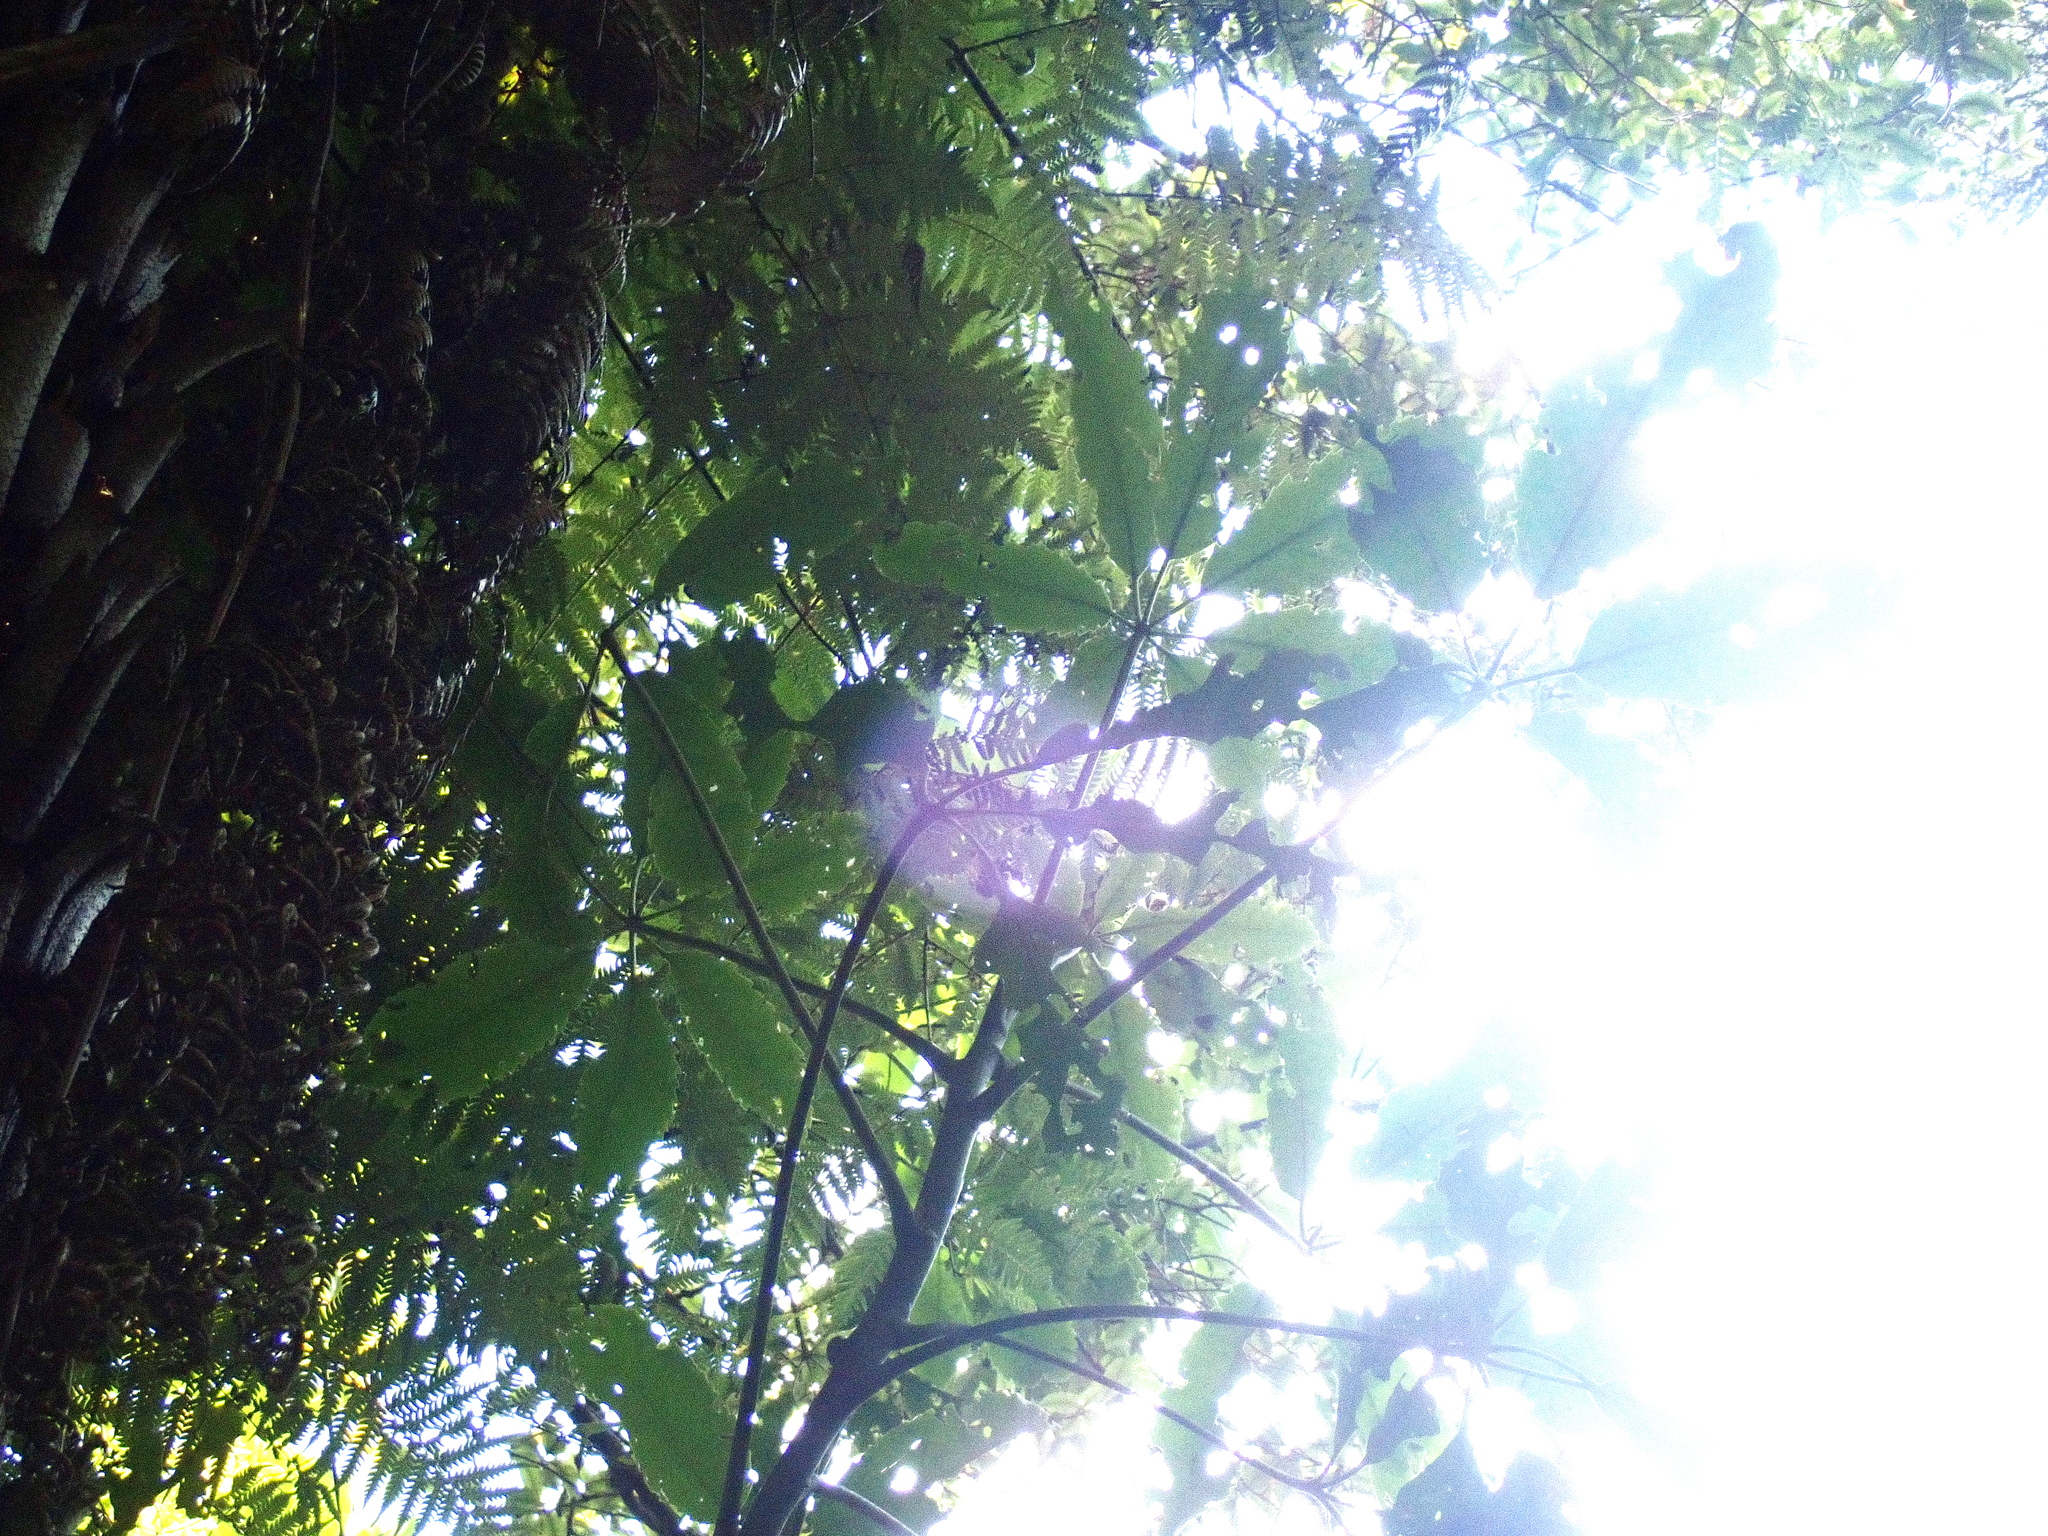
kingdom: Plantae
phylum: Tracheophyta
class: Magnoliopsida
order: Apiales
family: Araliaceae
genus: Neopanax
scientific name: Neopanax arboreus
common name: Five-fingers
